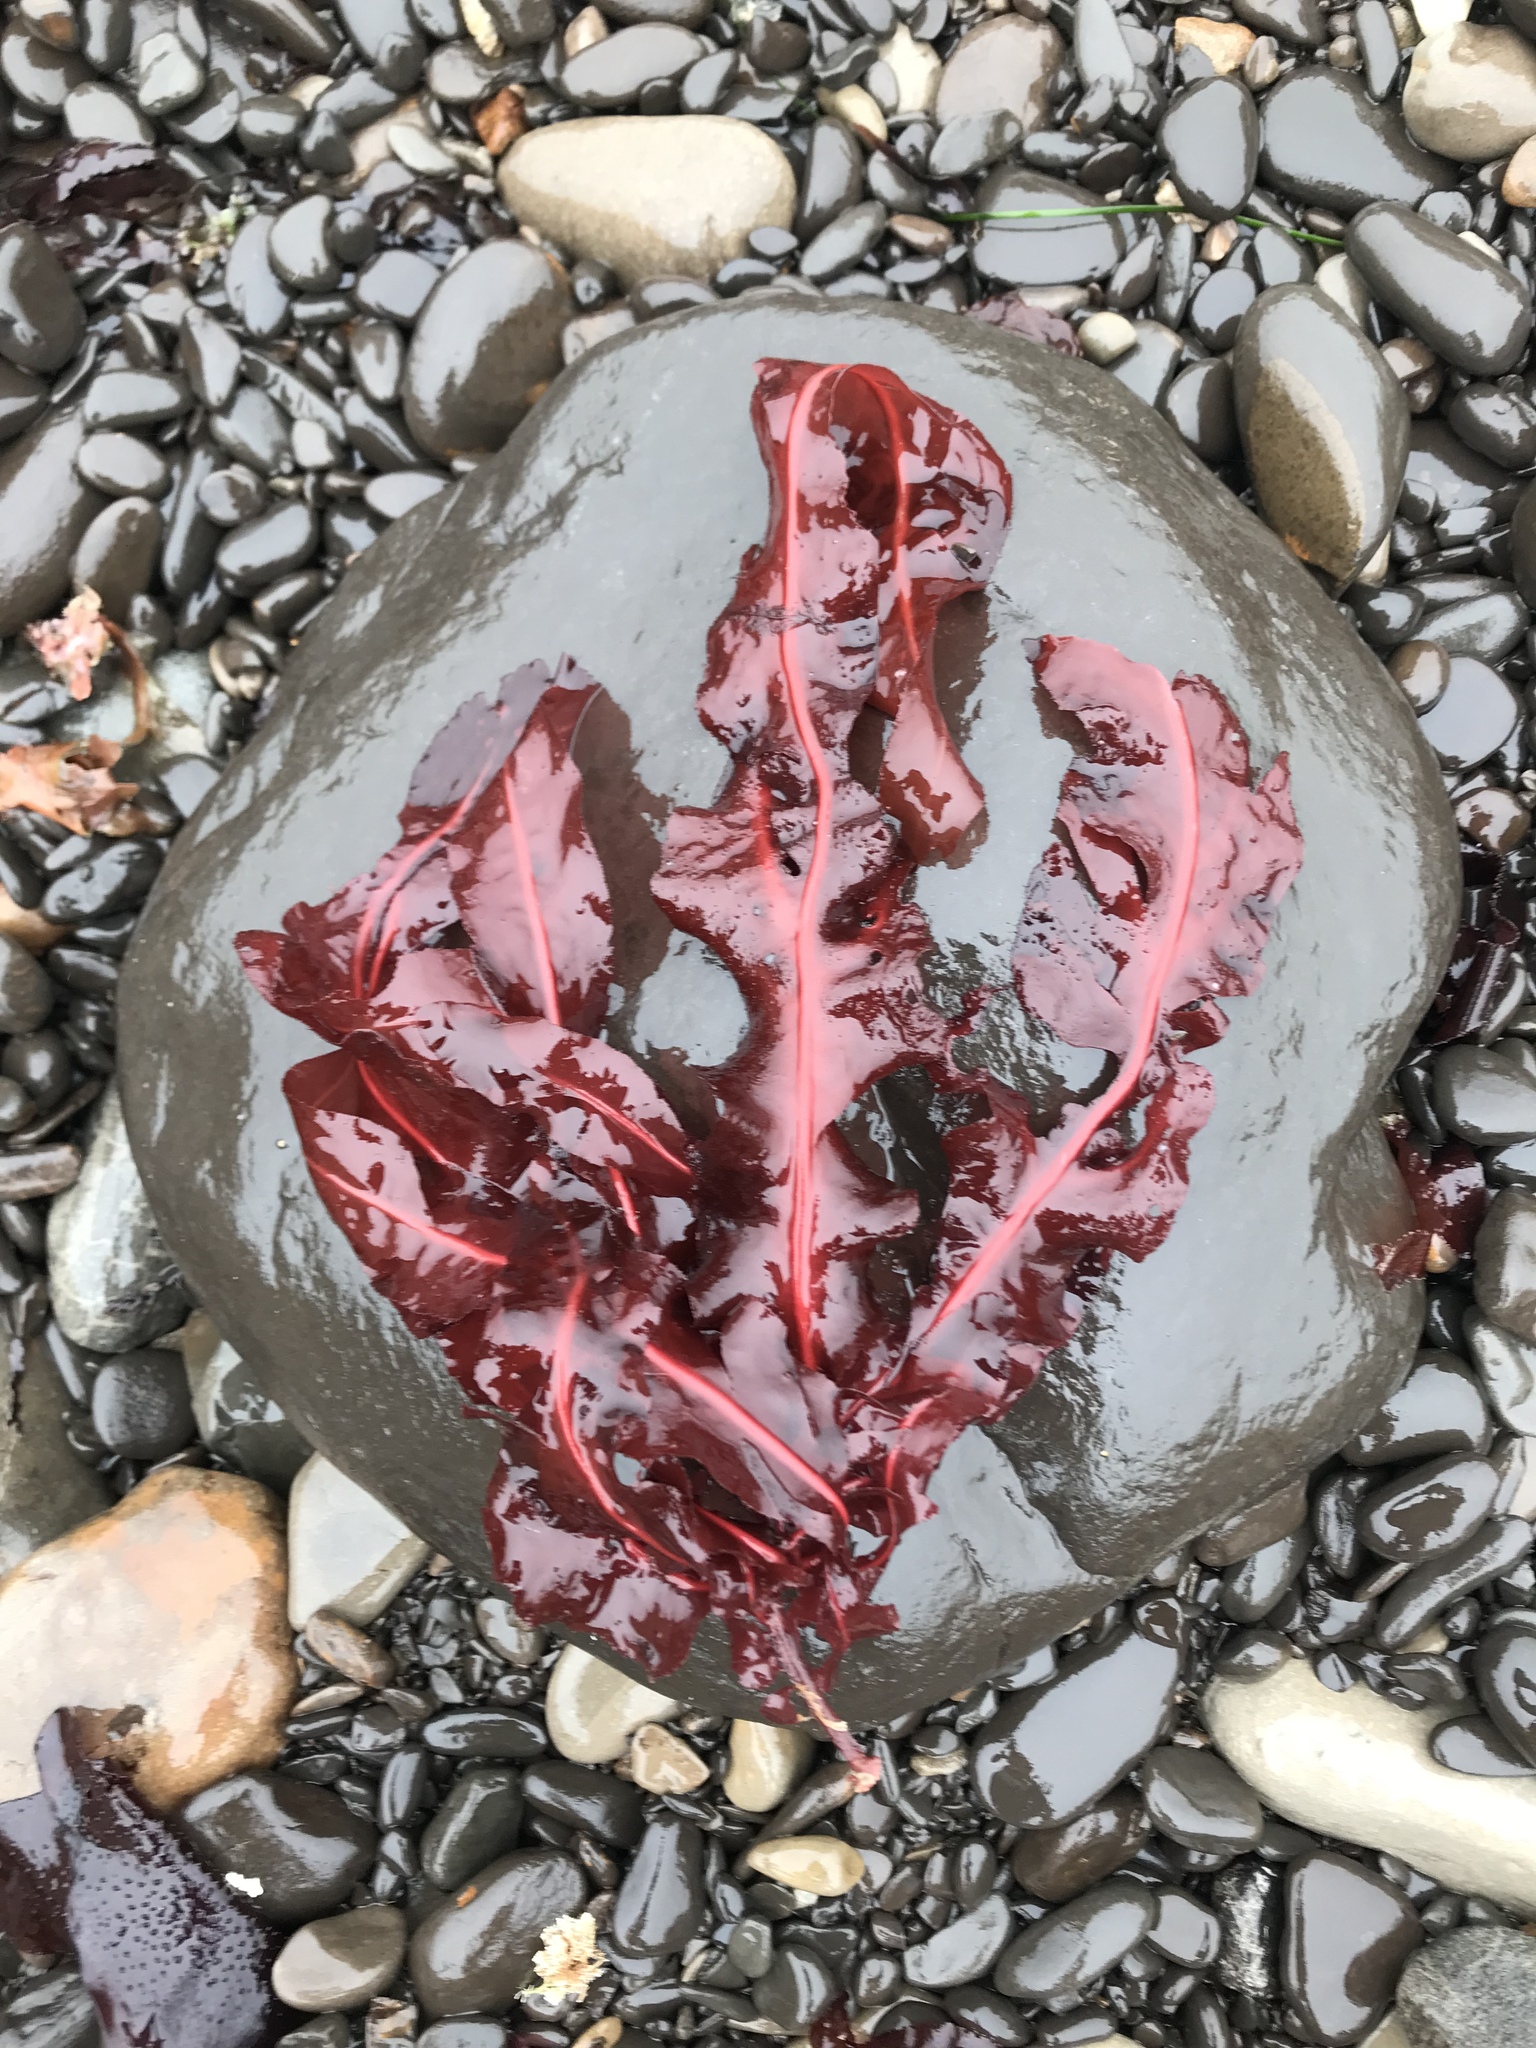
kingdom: Plantae
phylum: Rhodophyta
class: Florideophyceae
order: Gigartinales
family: Kallymeniaceae
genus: Erythrophyllum
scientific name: Erythrophyllum delesserioides
